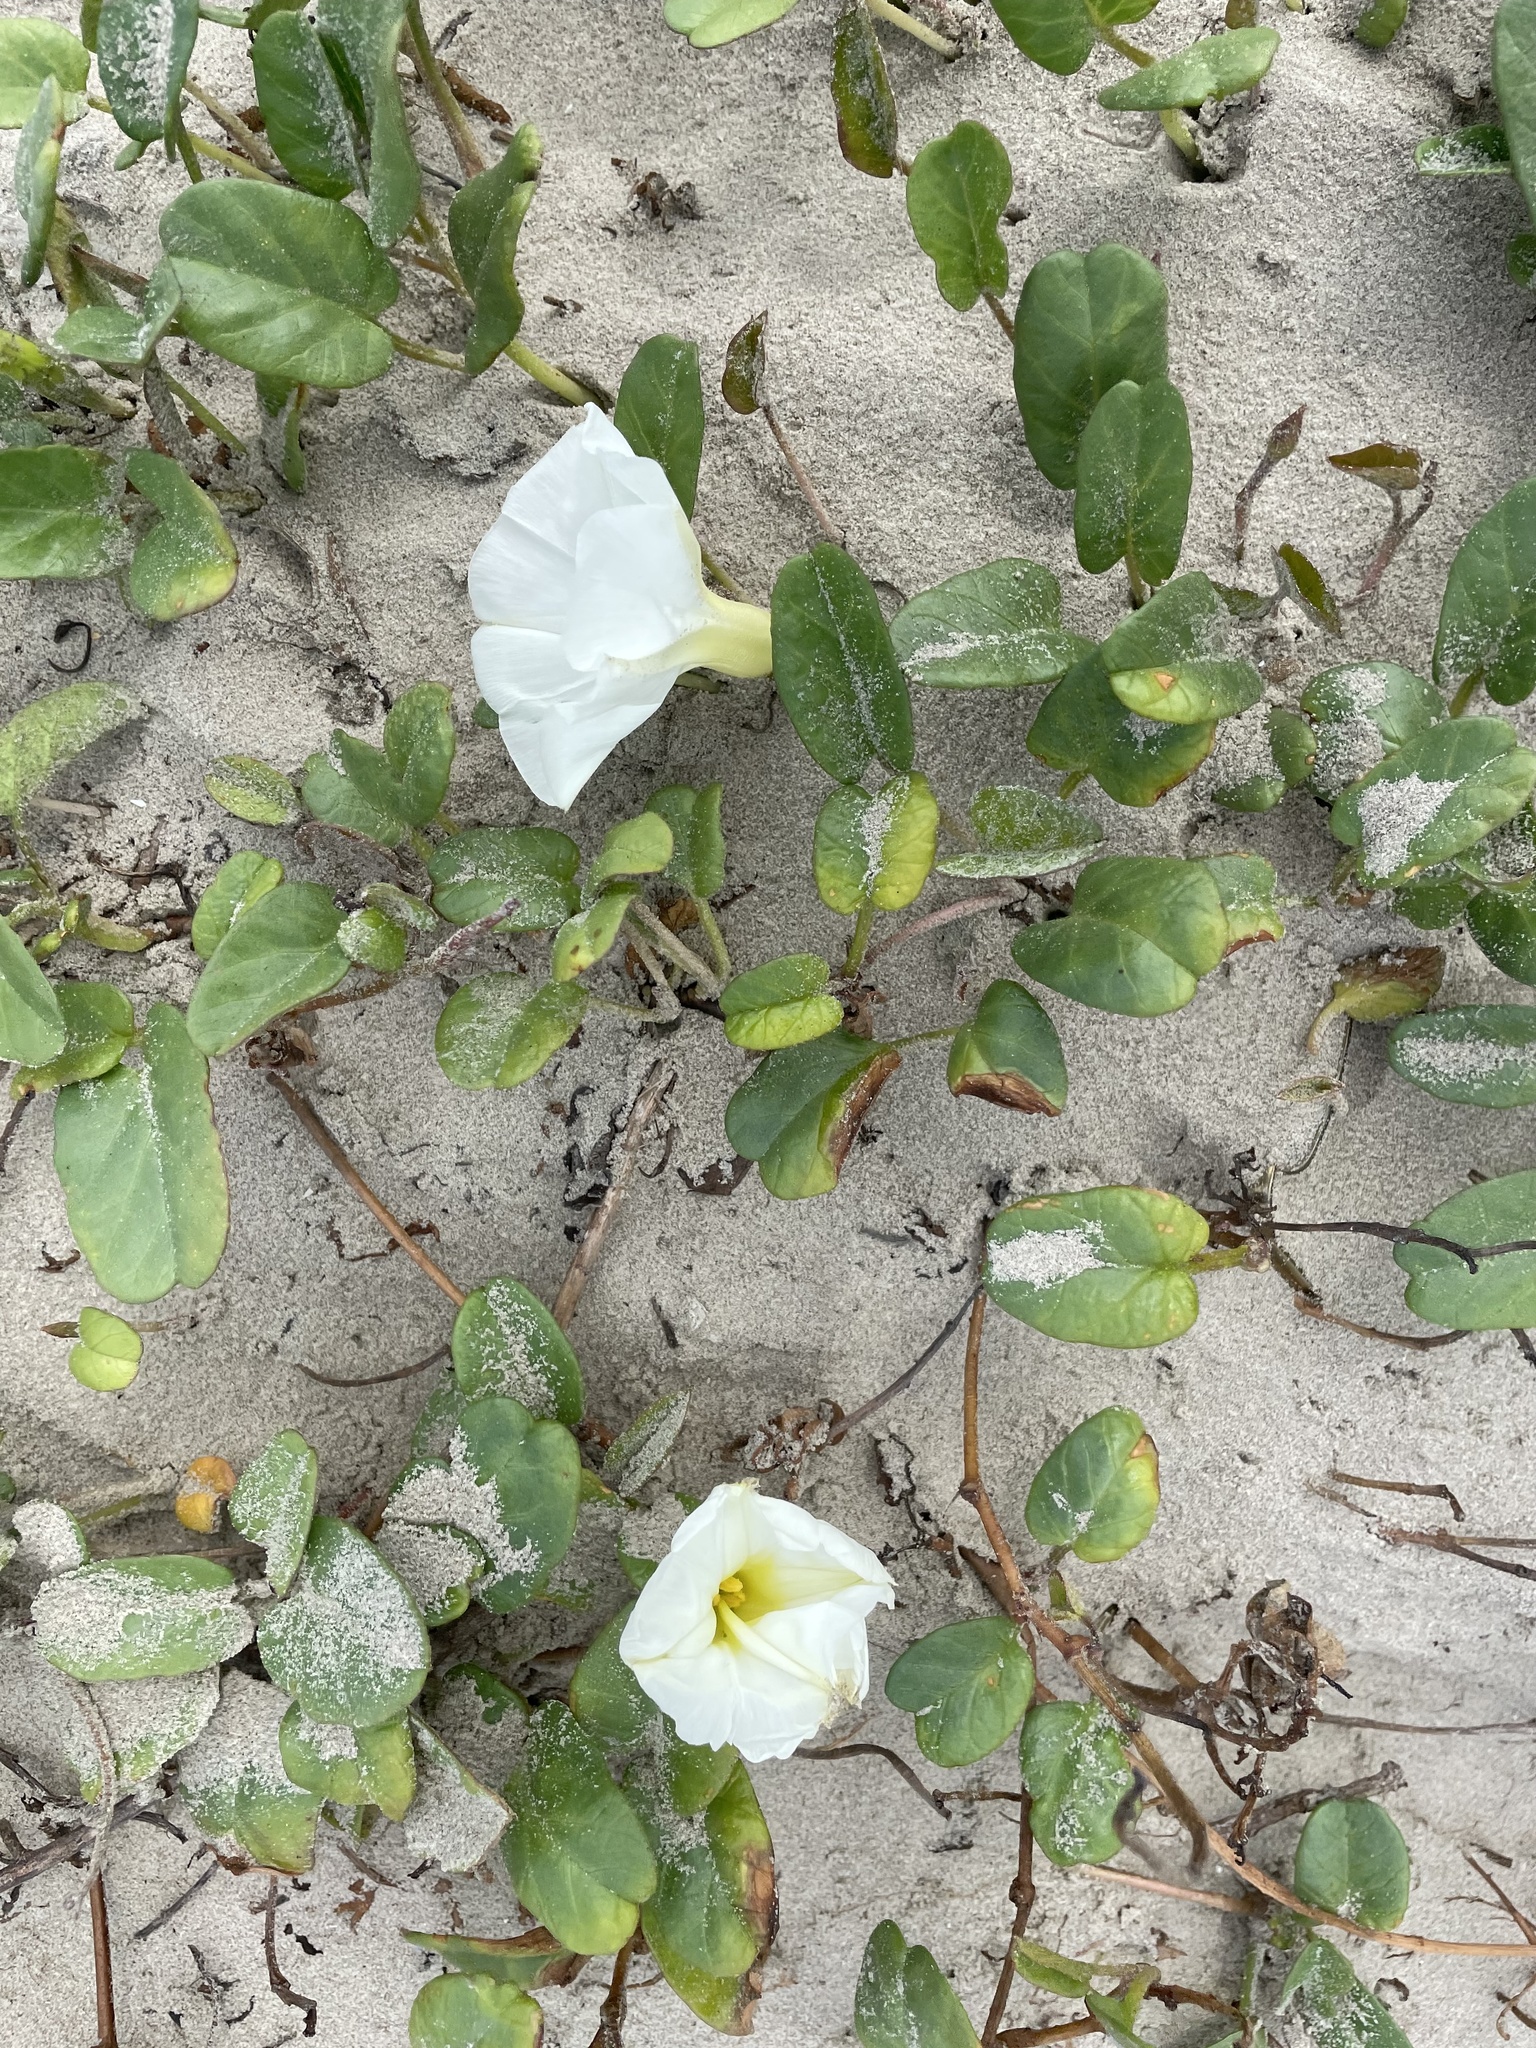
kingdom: Plantae
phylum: Tracheophyta
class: Magnoliopsida
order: Solanales
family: Convolvulaceae
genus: Ipomoea
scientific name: Ipomoea imperati
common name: Fiddle-leaf morning-glory
